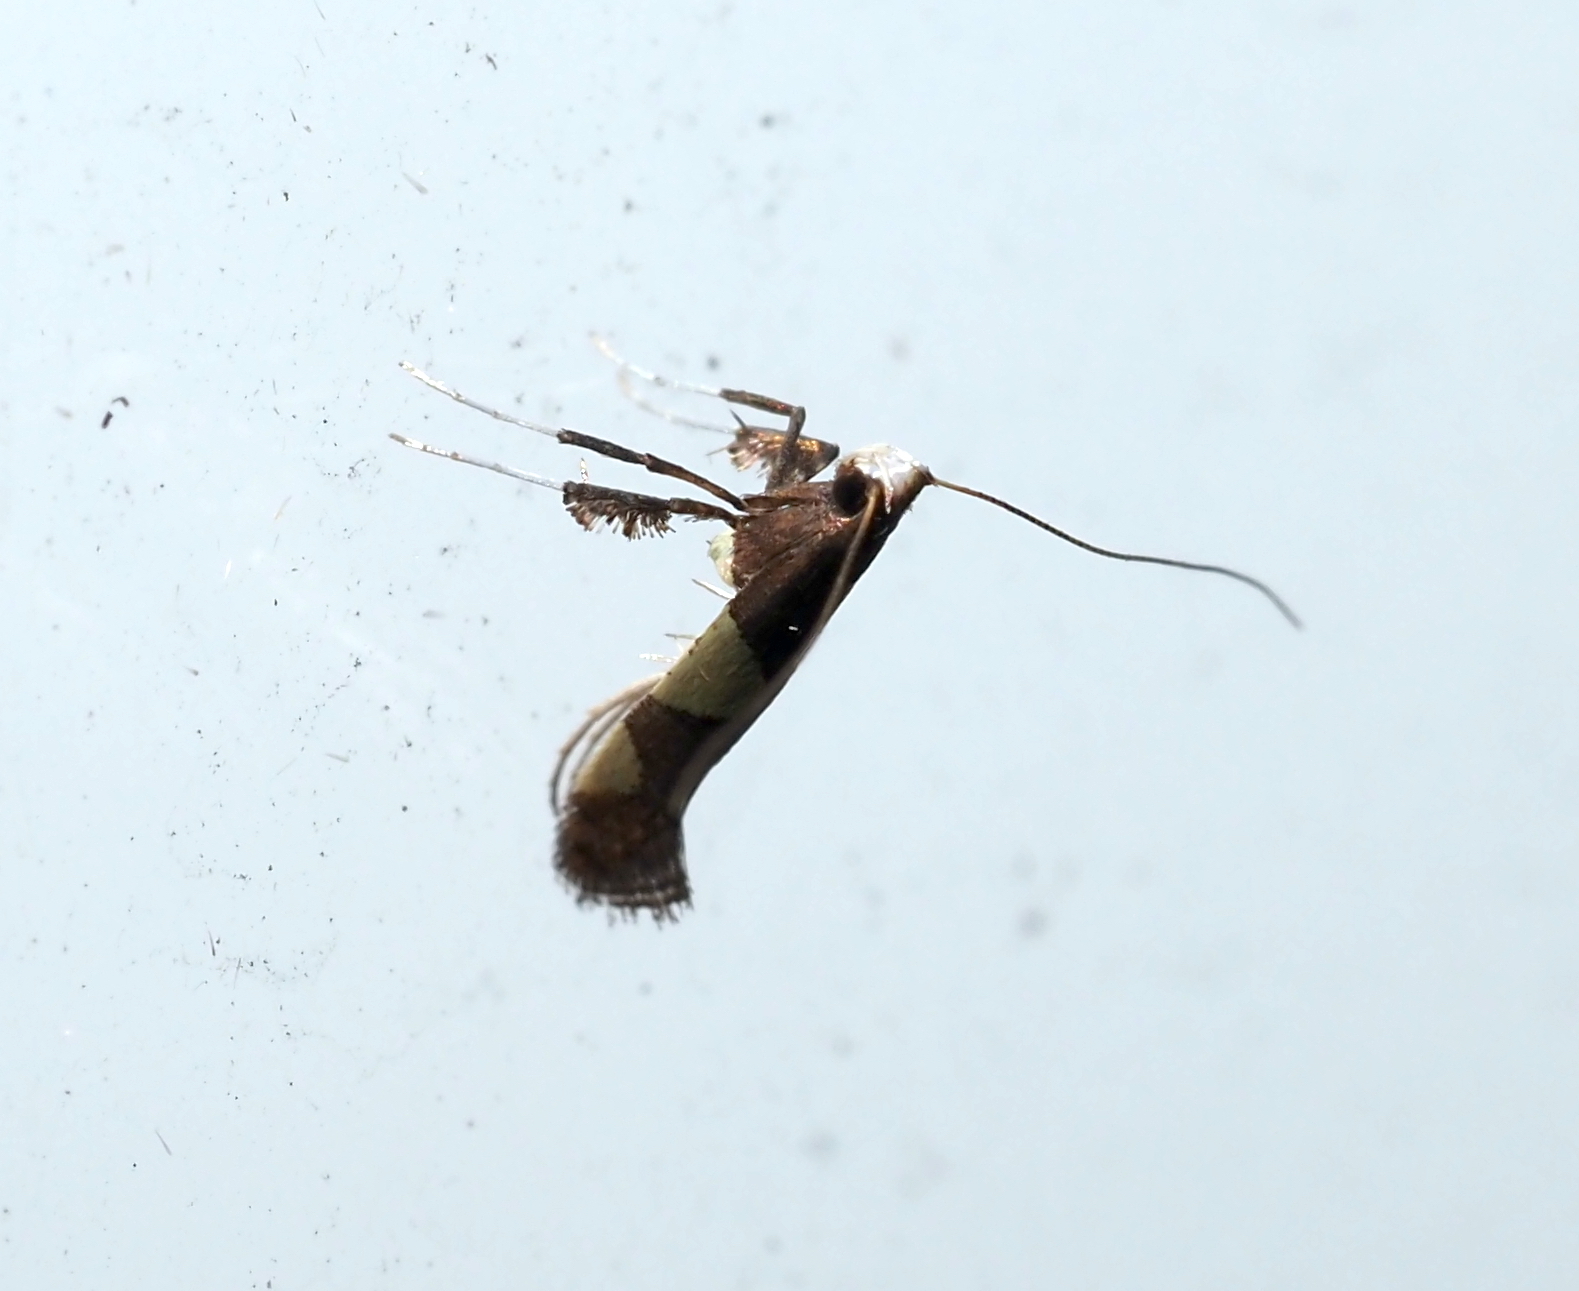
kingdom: Animalia
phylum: Arthropoda
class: Insecta
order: Lepidoptera
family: Gracillariidae
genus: Caloptilia
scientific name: Caloptilia bimaculatella
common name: Maple caloptilia moth
